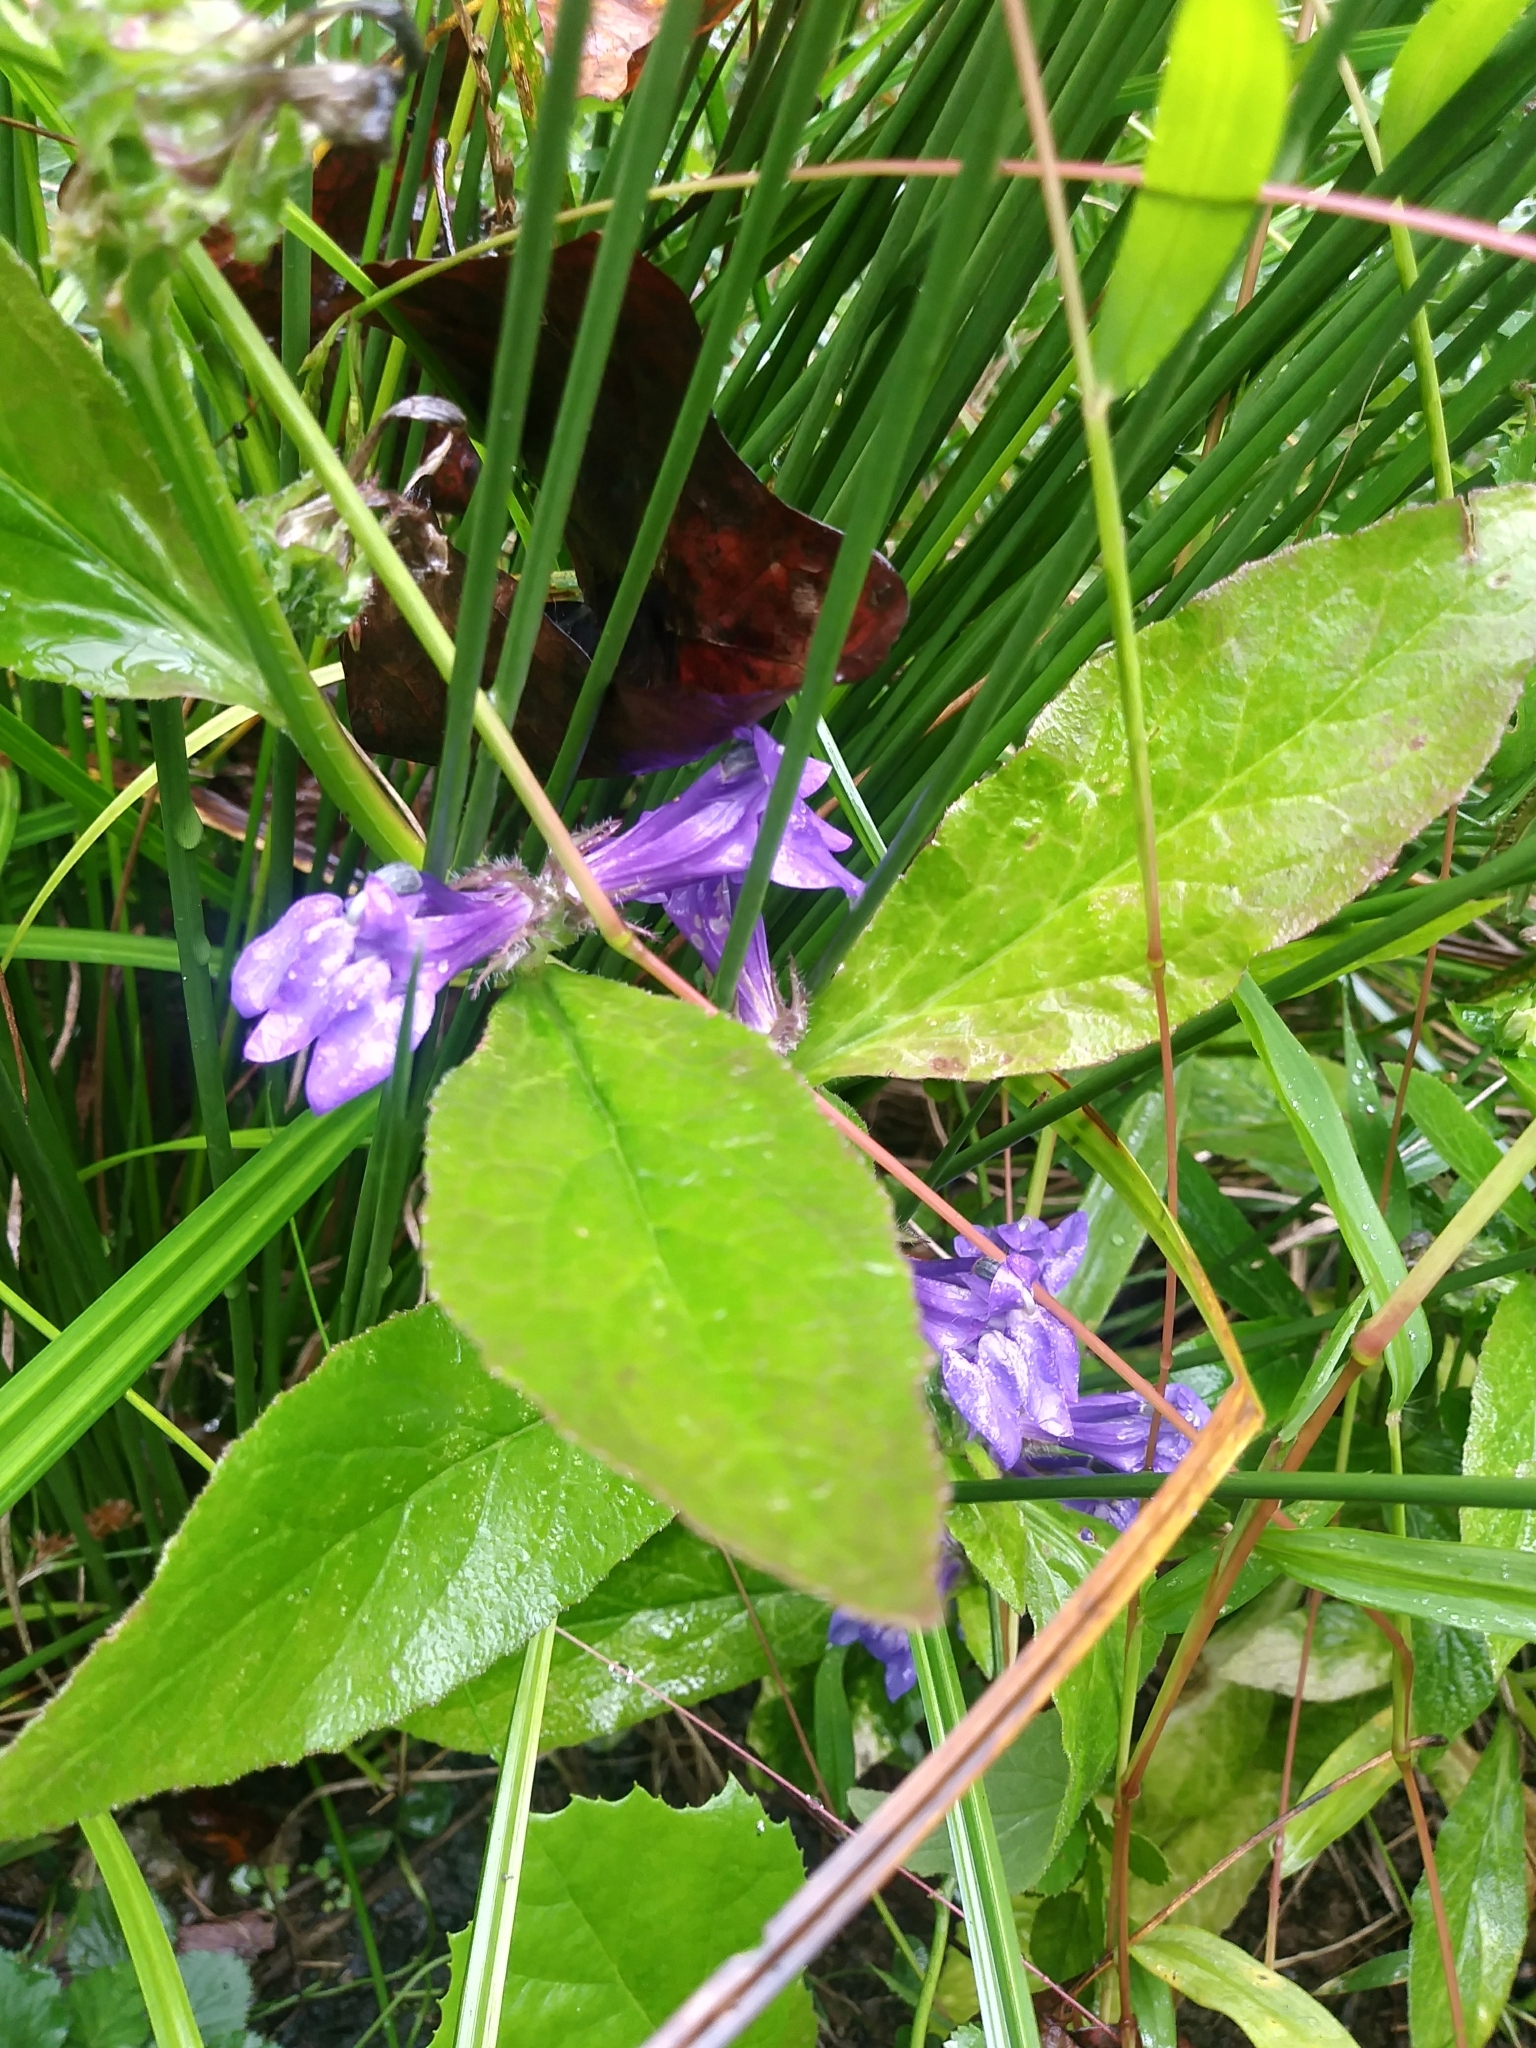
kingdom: Plantae
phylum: Tracheophyta
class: Magnoliopsida
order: Asterales
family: Campanulaceae
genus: Lobelia
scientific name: Lobelia siphilitica
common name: Great lobelia
